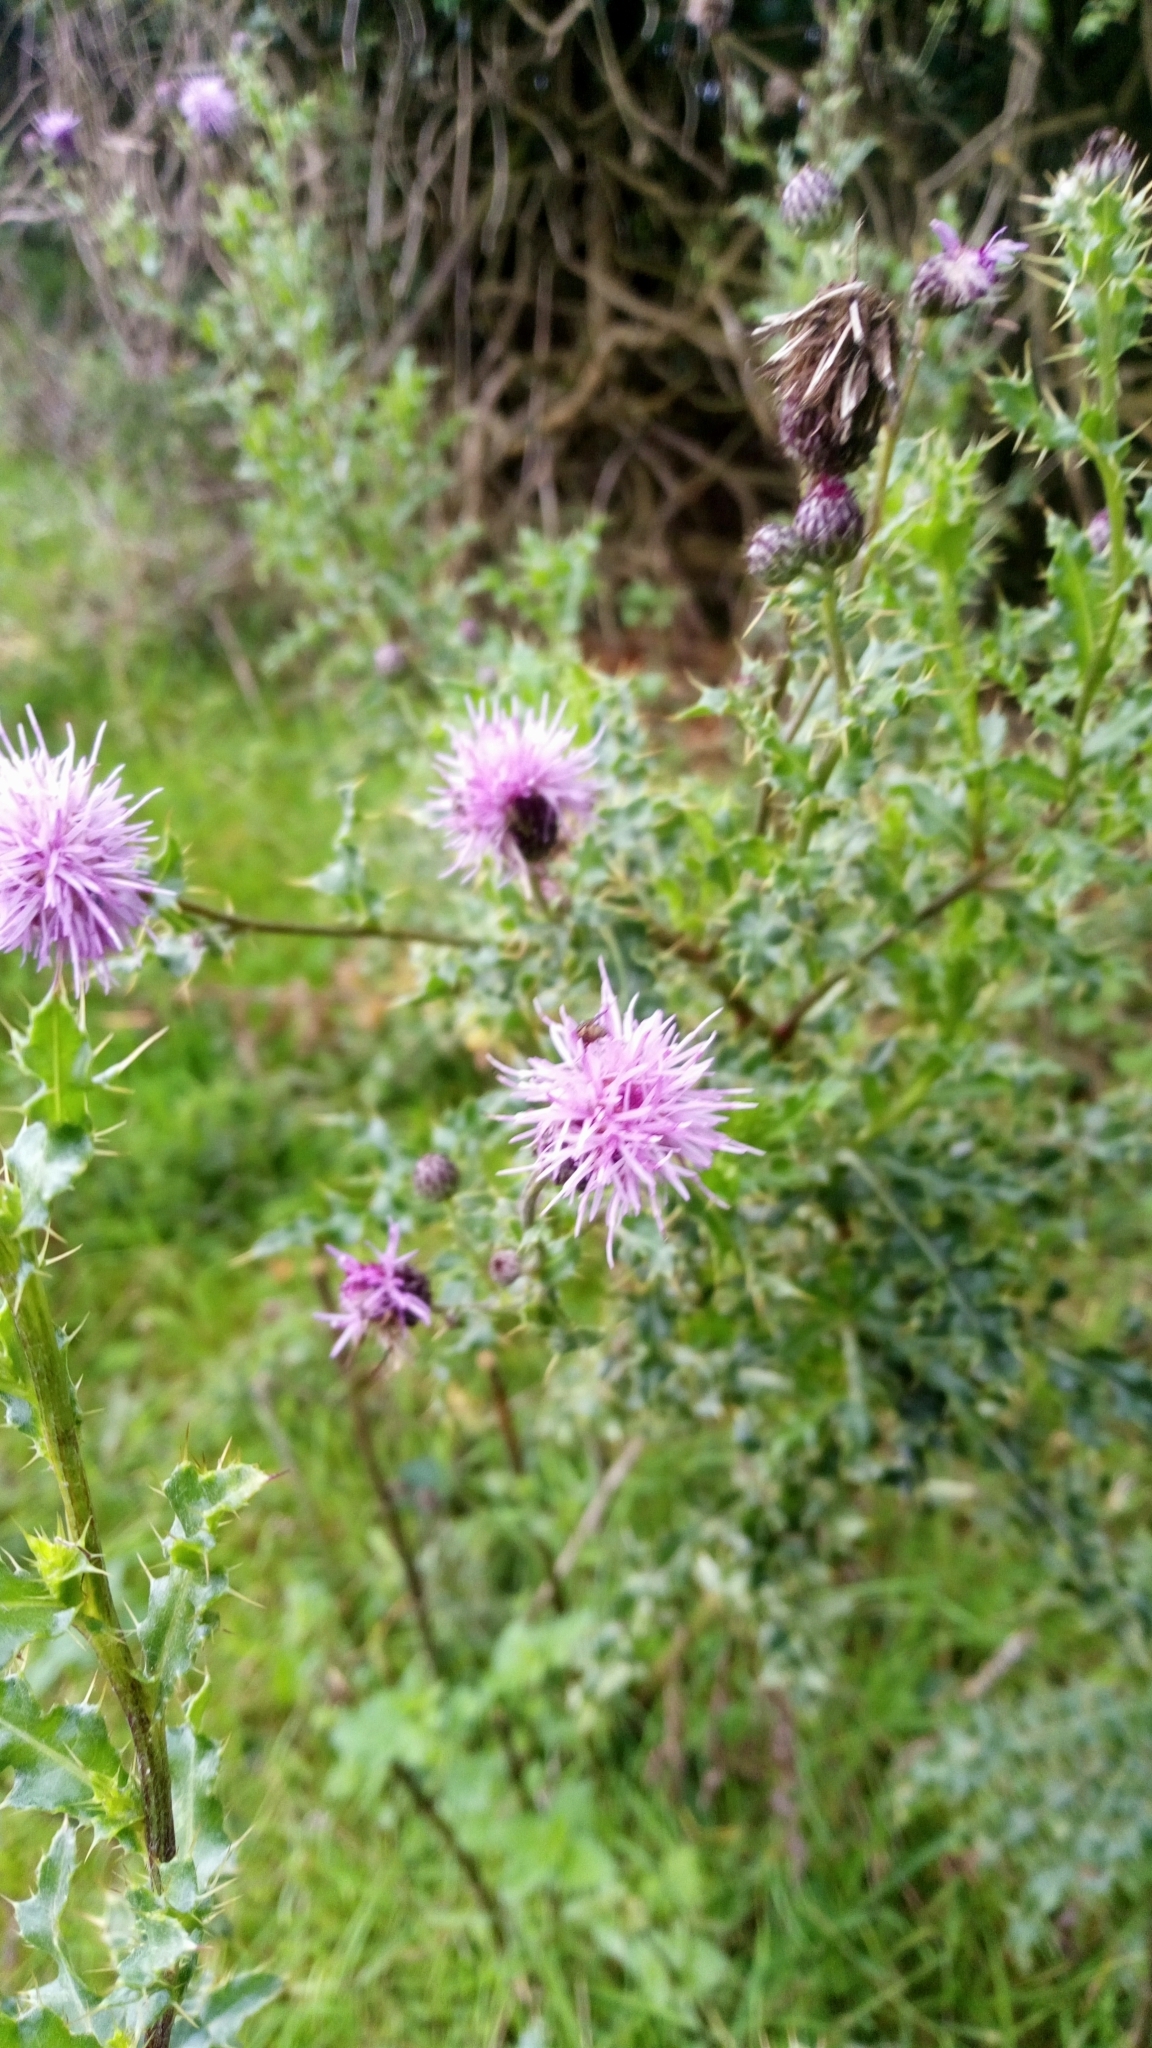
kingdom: Plantae
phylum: Tracheophyta
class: Magnoliopsida
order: Asterales
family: Asteraceae
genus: Cirsium
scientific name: Cirsium arvense
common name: Creeping thistle
